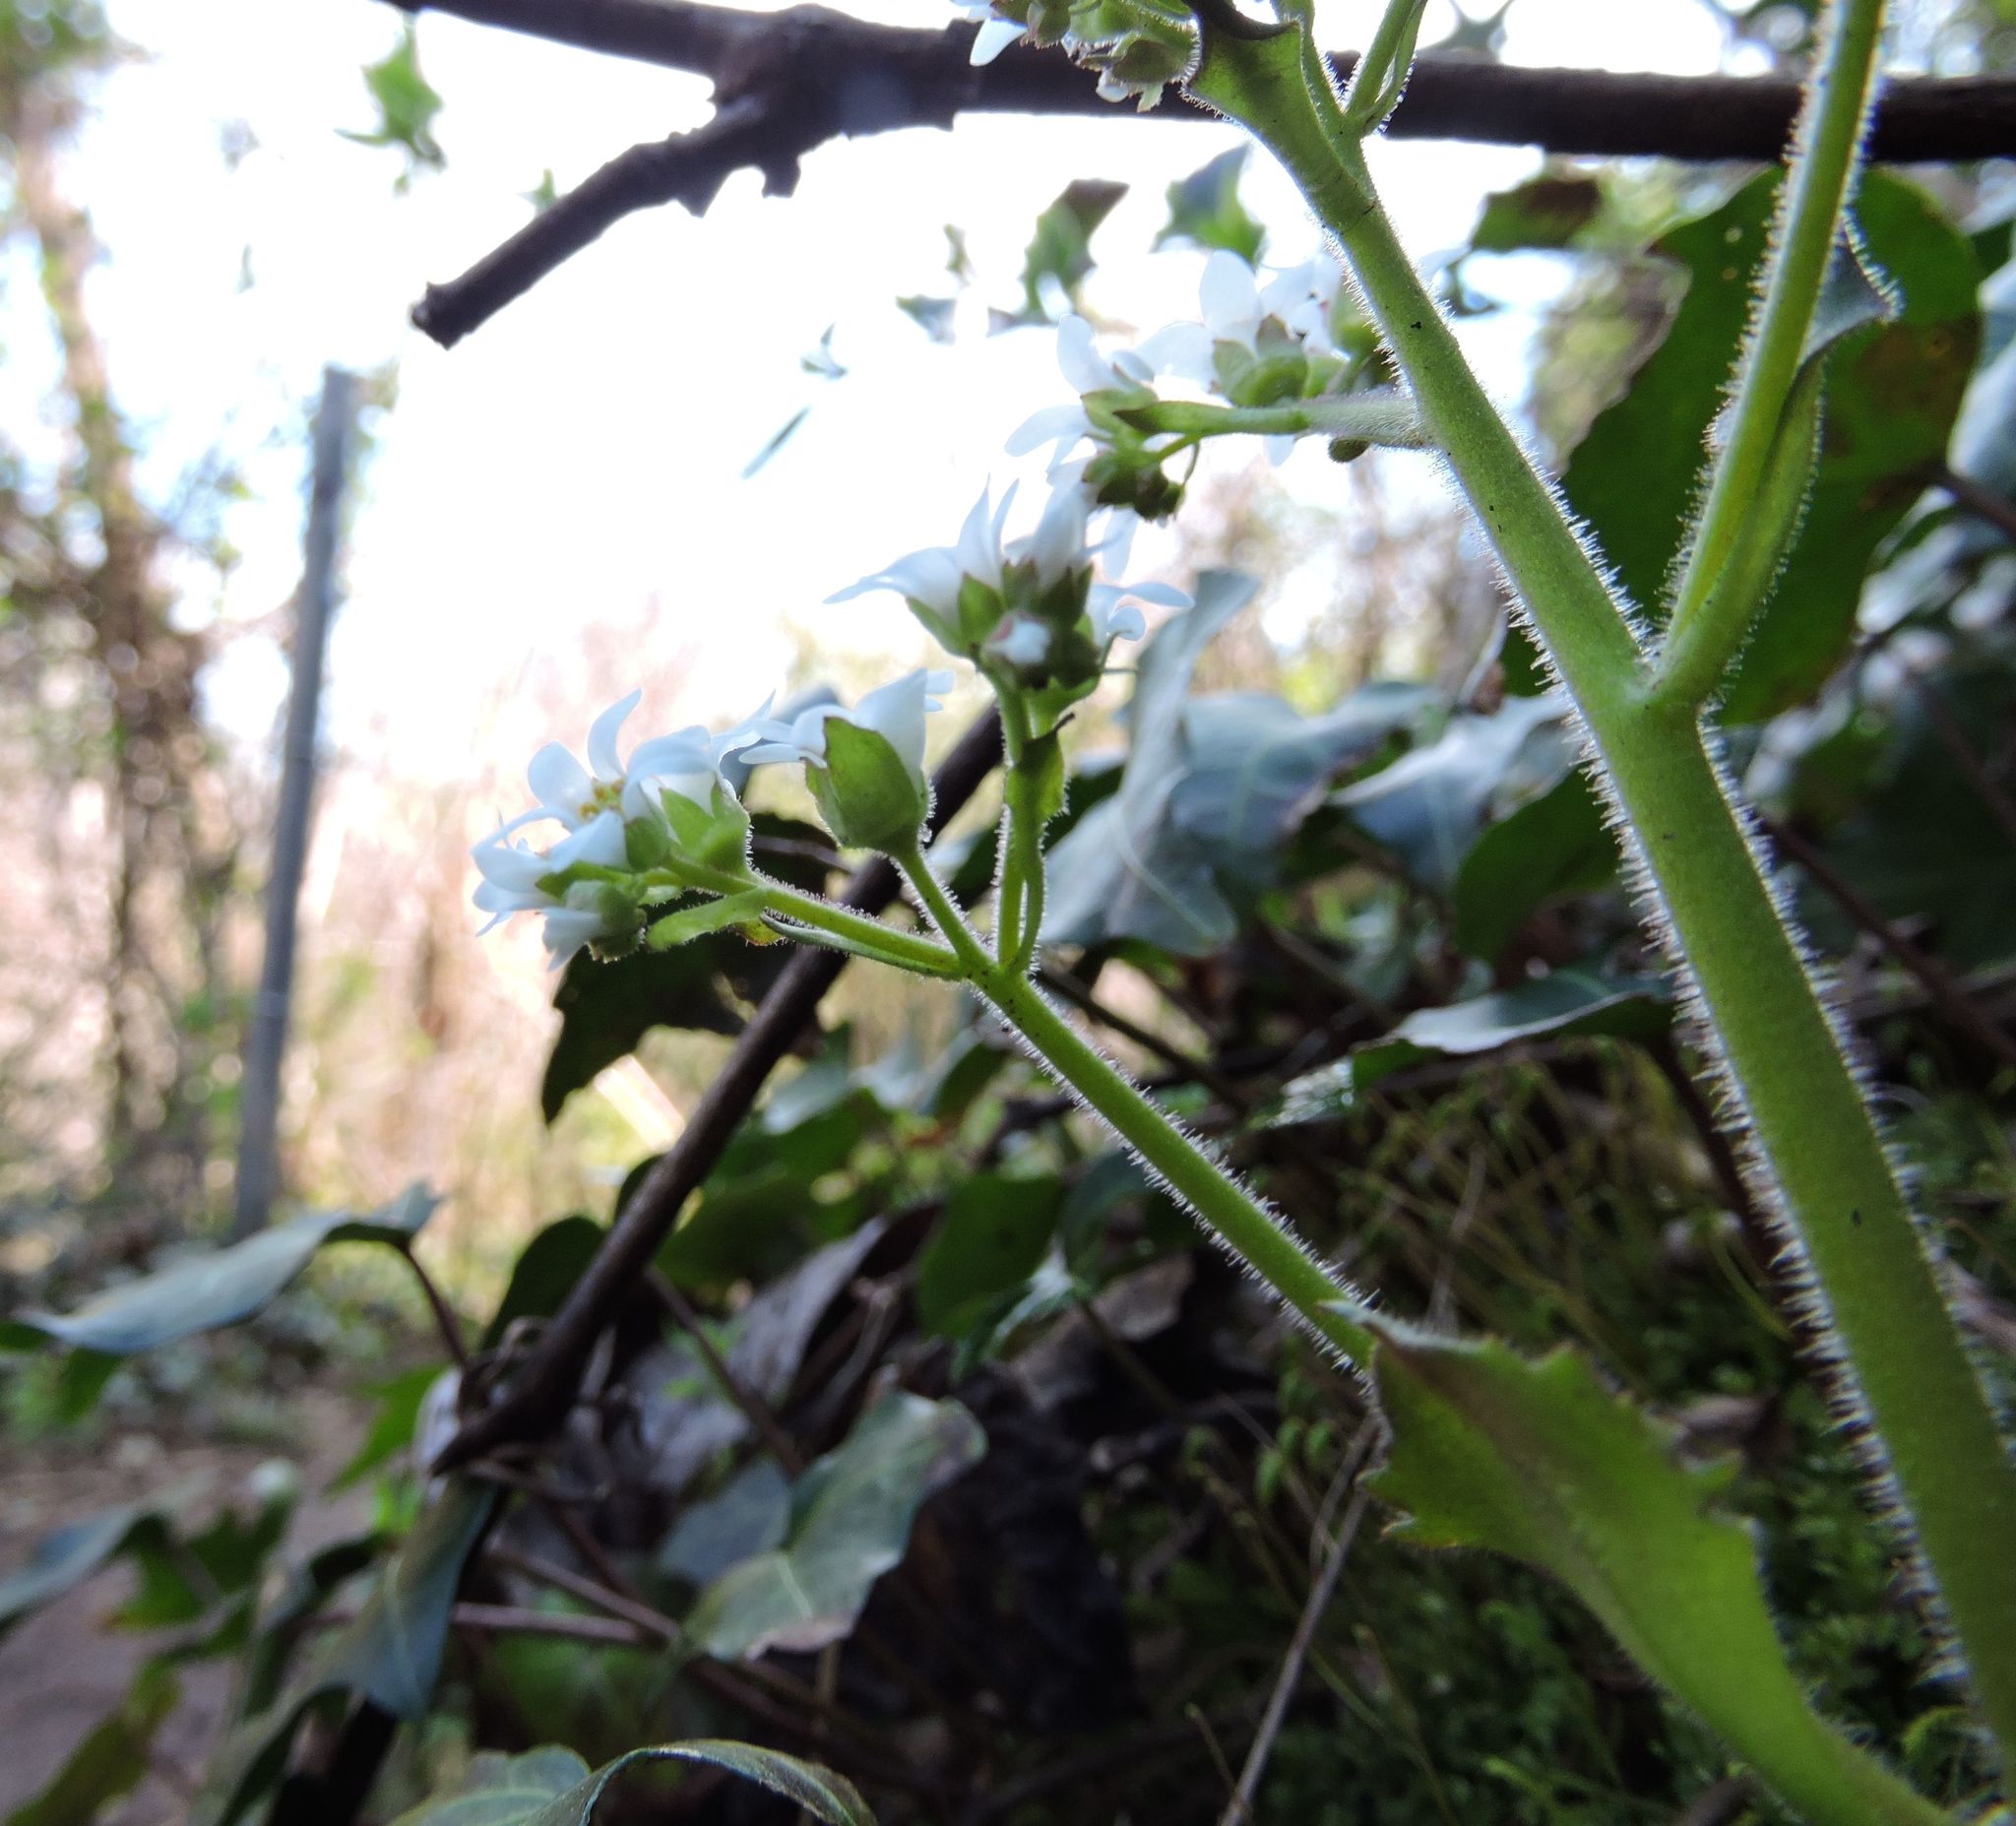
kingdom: Plantae
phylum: Tracheophyta
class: Magnoliopsida
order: Saxifragales
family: Saxifragaceae
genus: Micranthes
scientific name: Micranthes virginiensis
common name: Early saxifrage
